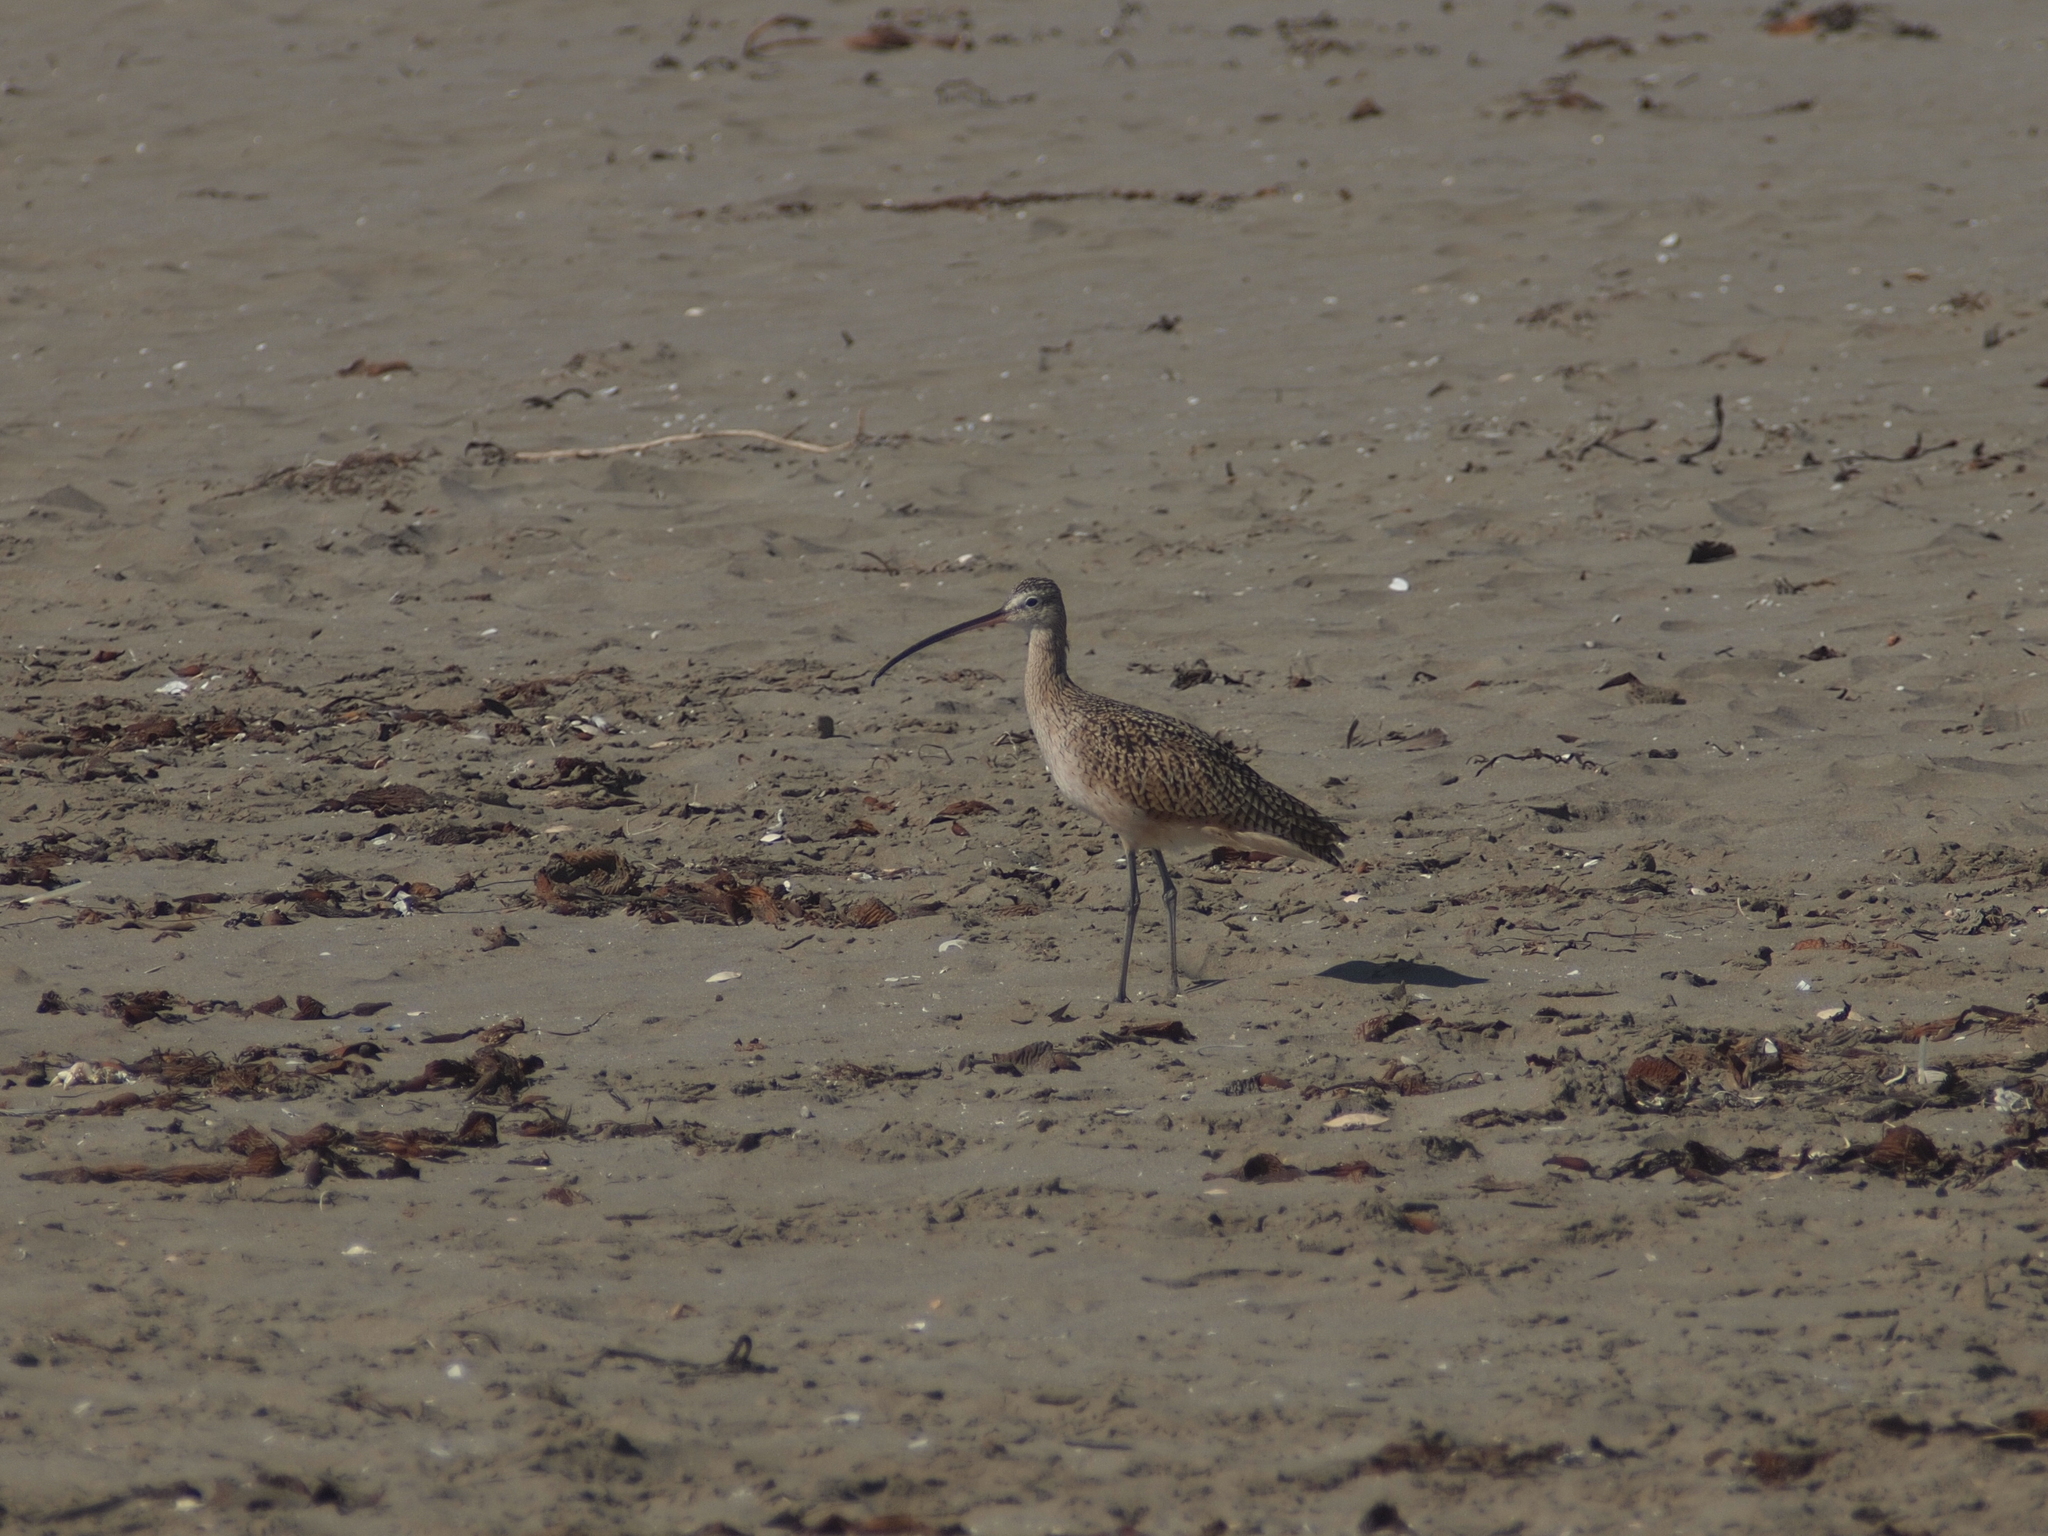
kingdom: Animalia
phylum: Chordata
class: Aves
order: Charadriiformes
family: Scolopacidae
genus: Numenius
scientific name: Numenius americanus
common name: Long-billed curlew
